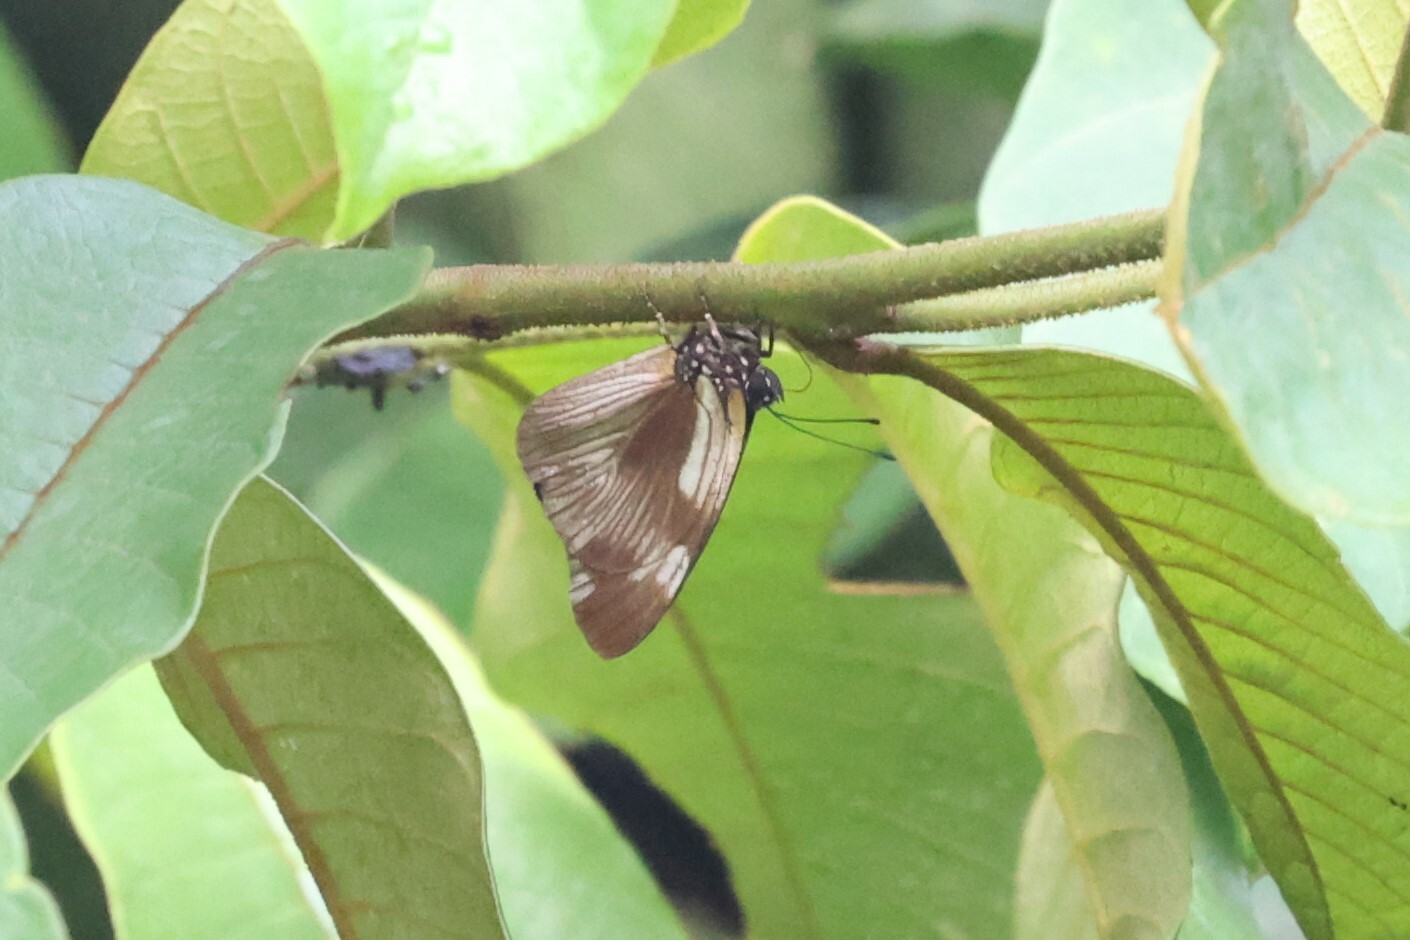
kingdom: Animalia
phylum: Arthropoda
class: Insecta
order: Lepidoptera
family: Lycaenidae
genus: Epitola
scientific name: Epitola crowleyi
